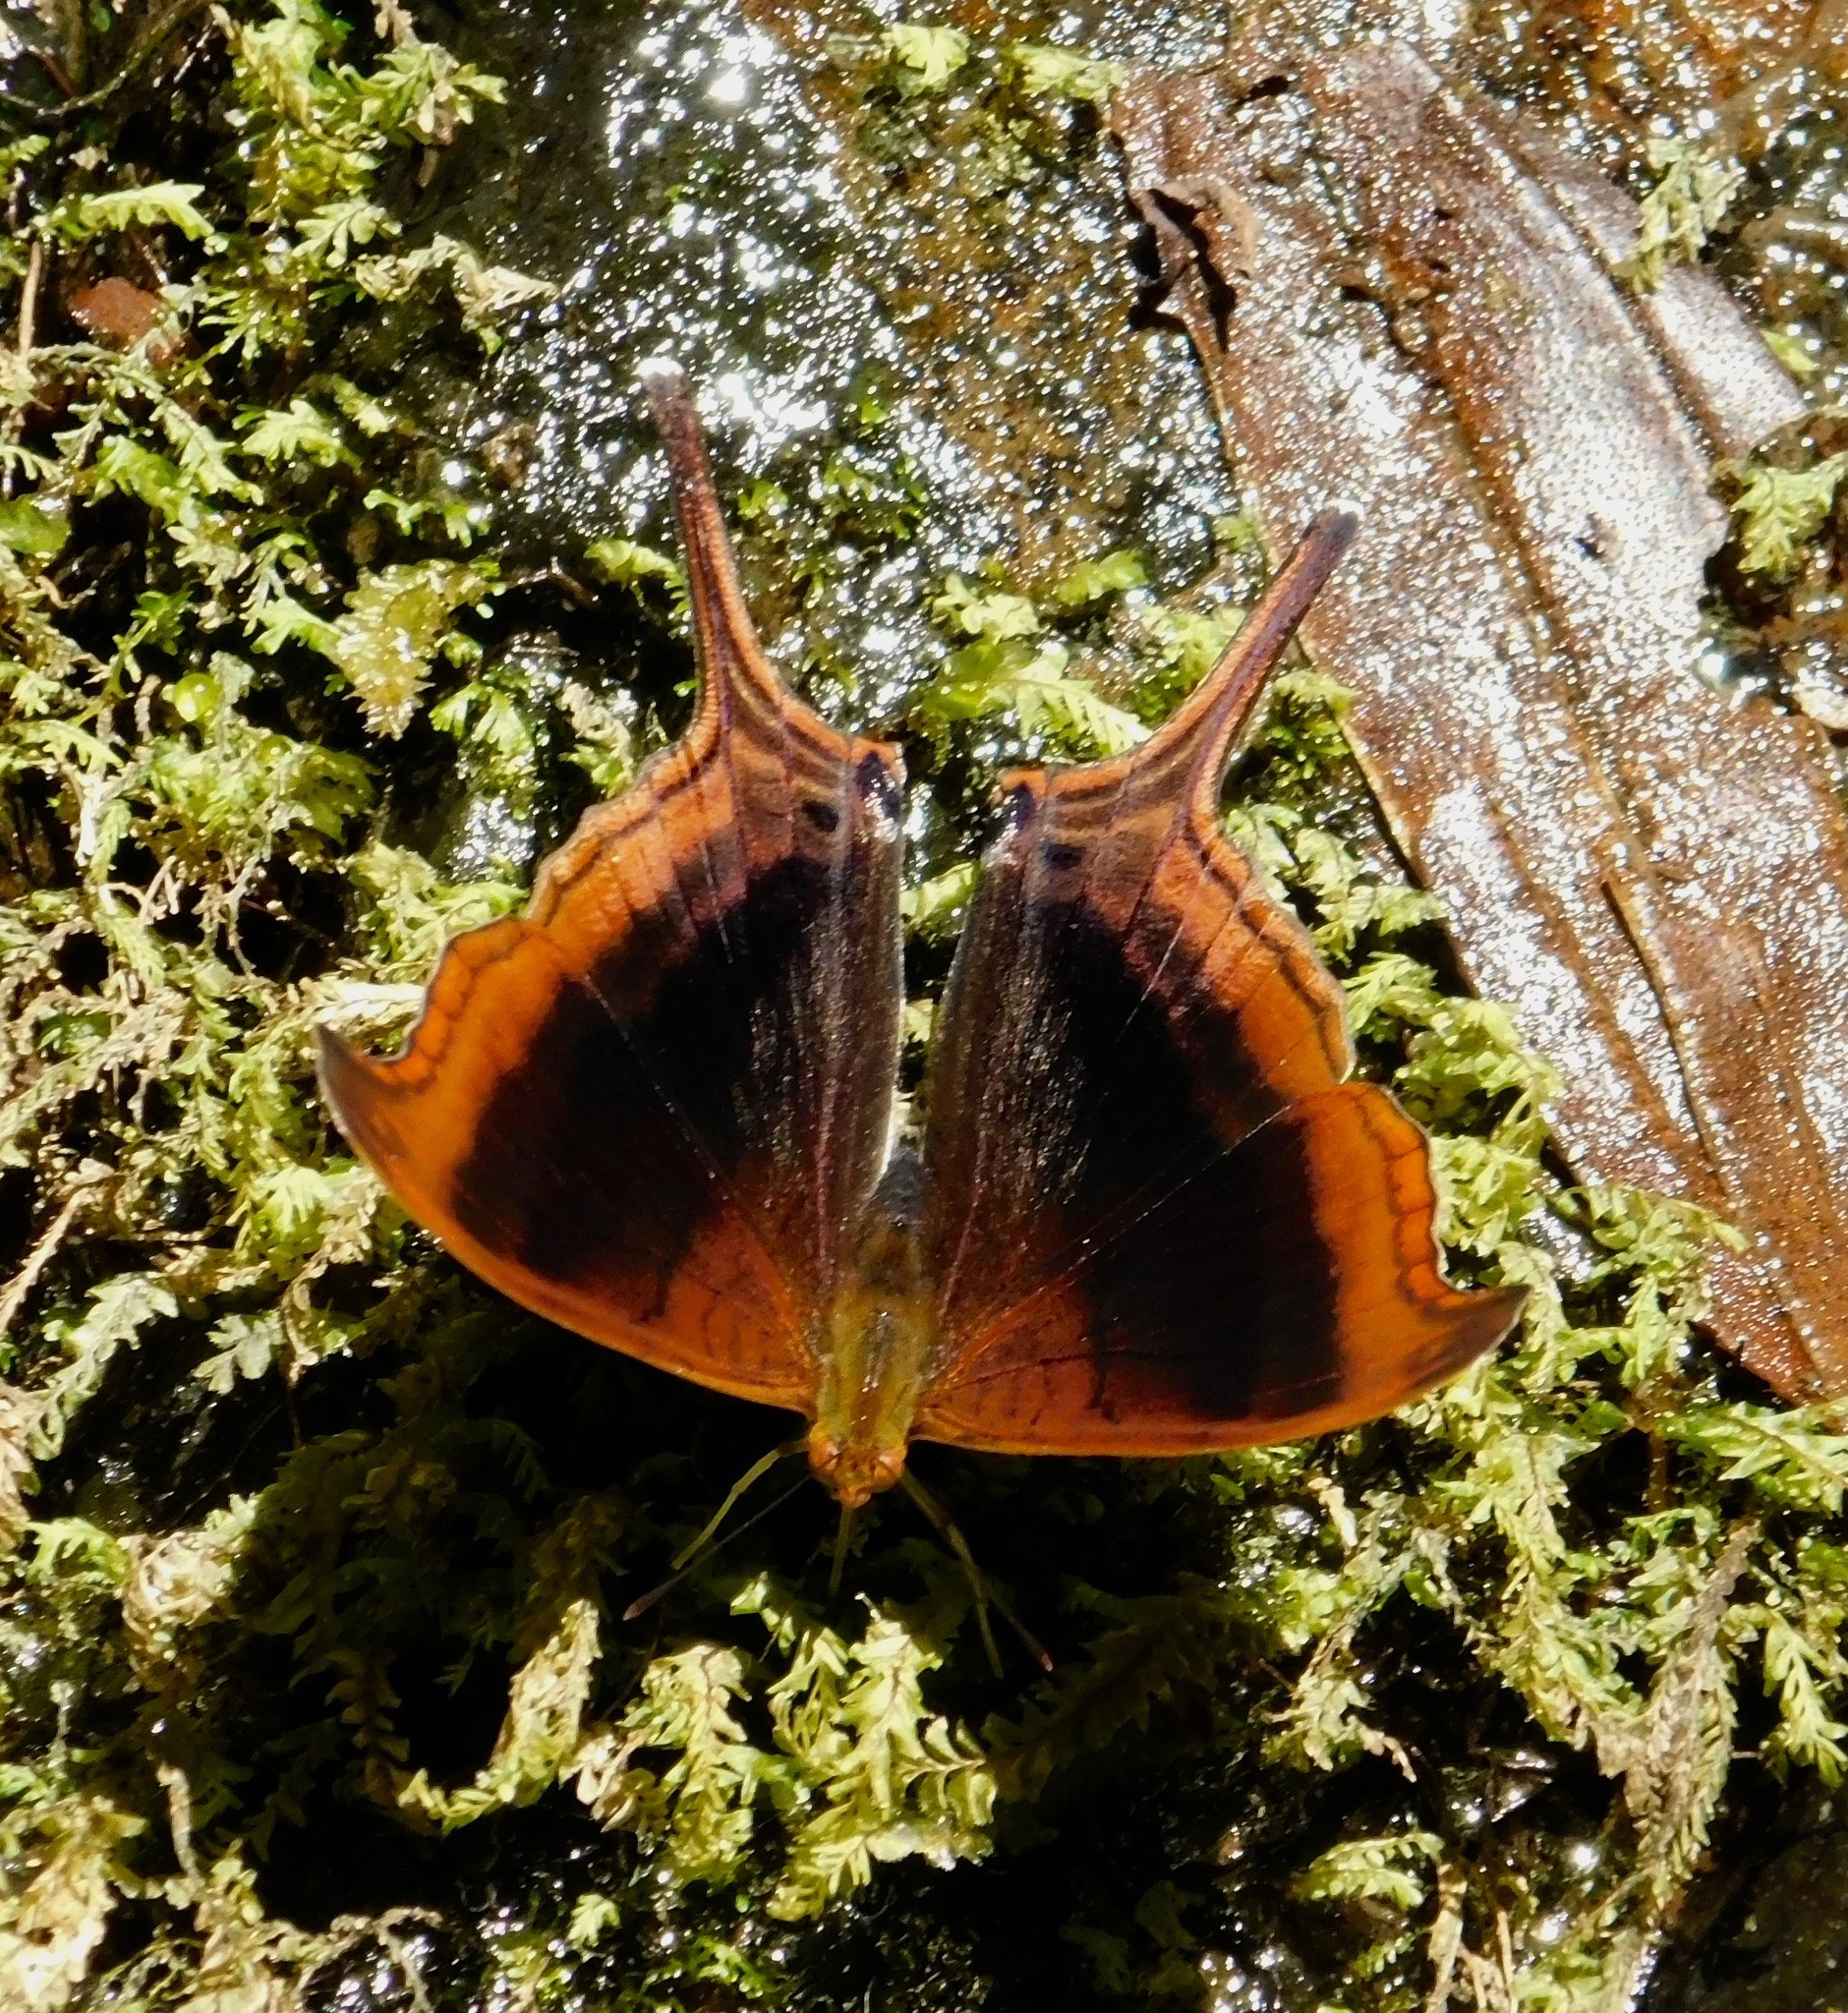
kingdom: Animalia
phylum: Arthropoda
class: Insecta
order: Lepidoptera
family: Nymphalidae
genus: Marpesia
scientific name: Marpesia zerynthia
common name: Waiter daggerwing
